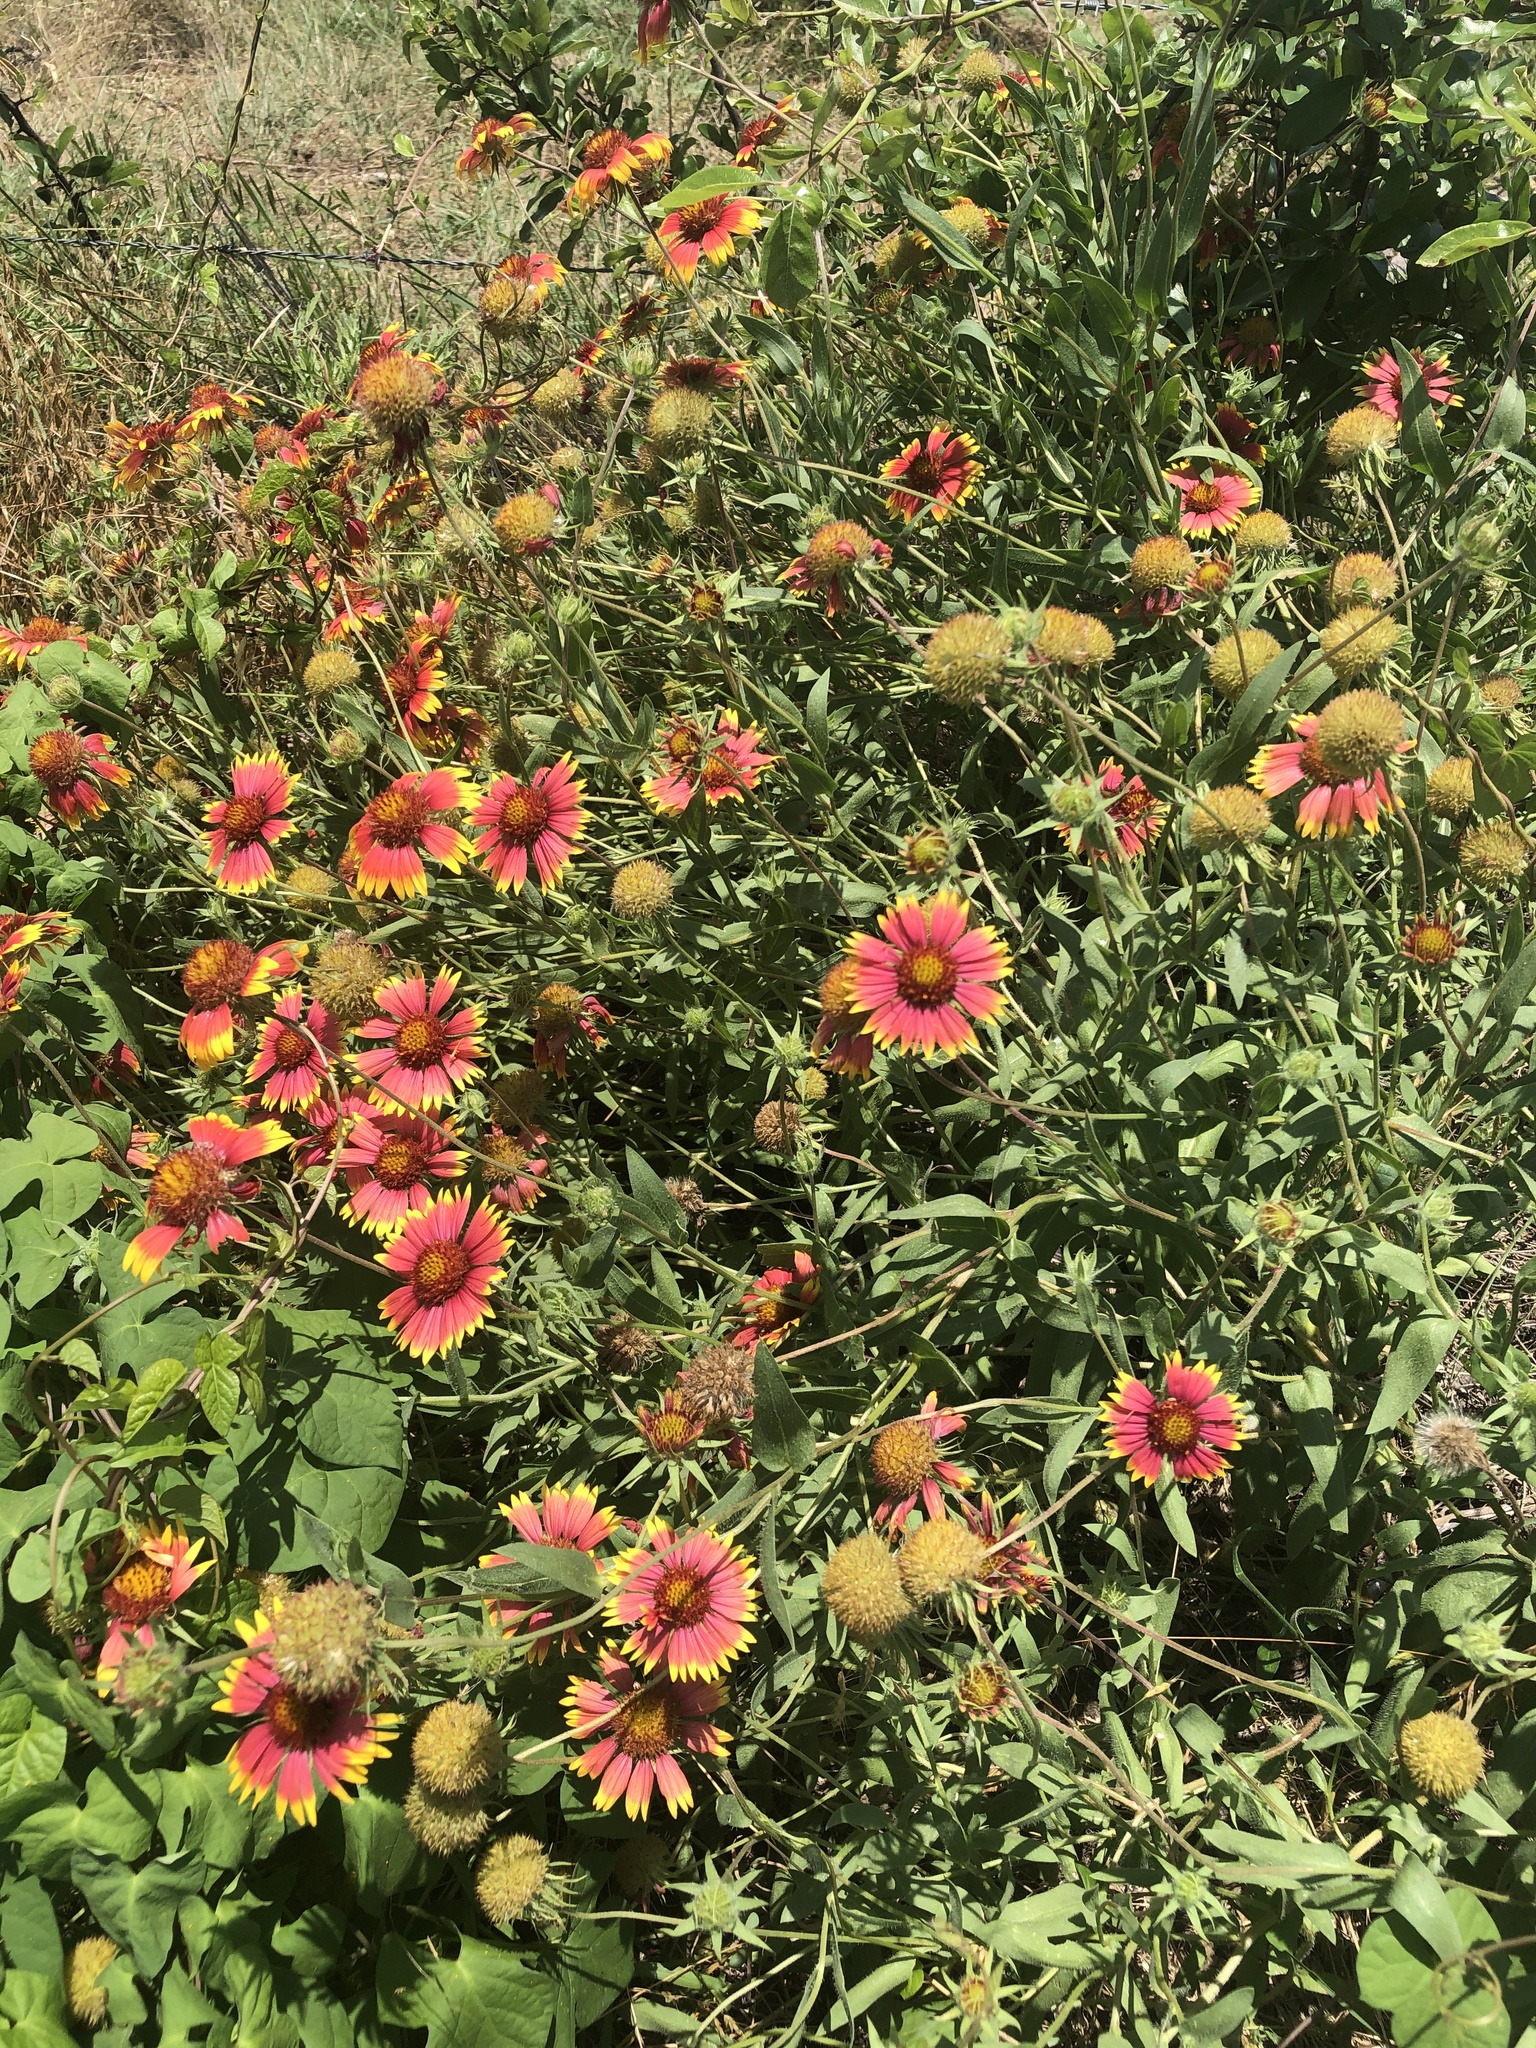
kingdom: Plantae
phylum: Tracheophyta
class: Magnoliopsida
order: Asterales
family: Asteraceae
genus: Gaillardia
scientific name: Gaillardia pulchella
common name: Firewheel
